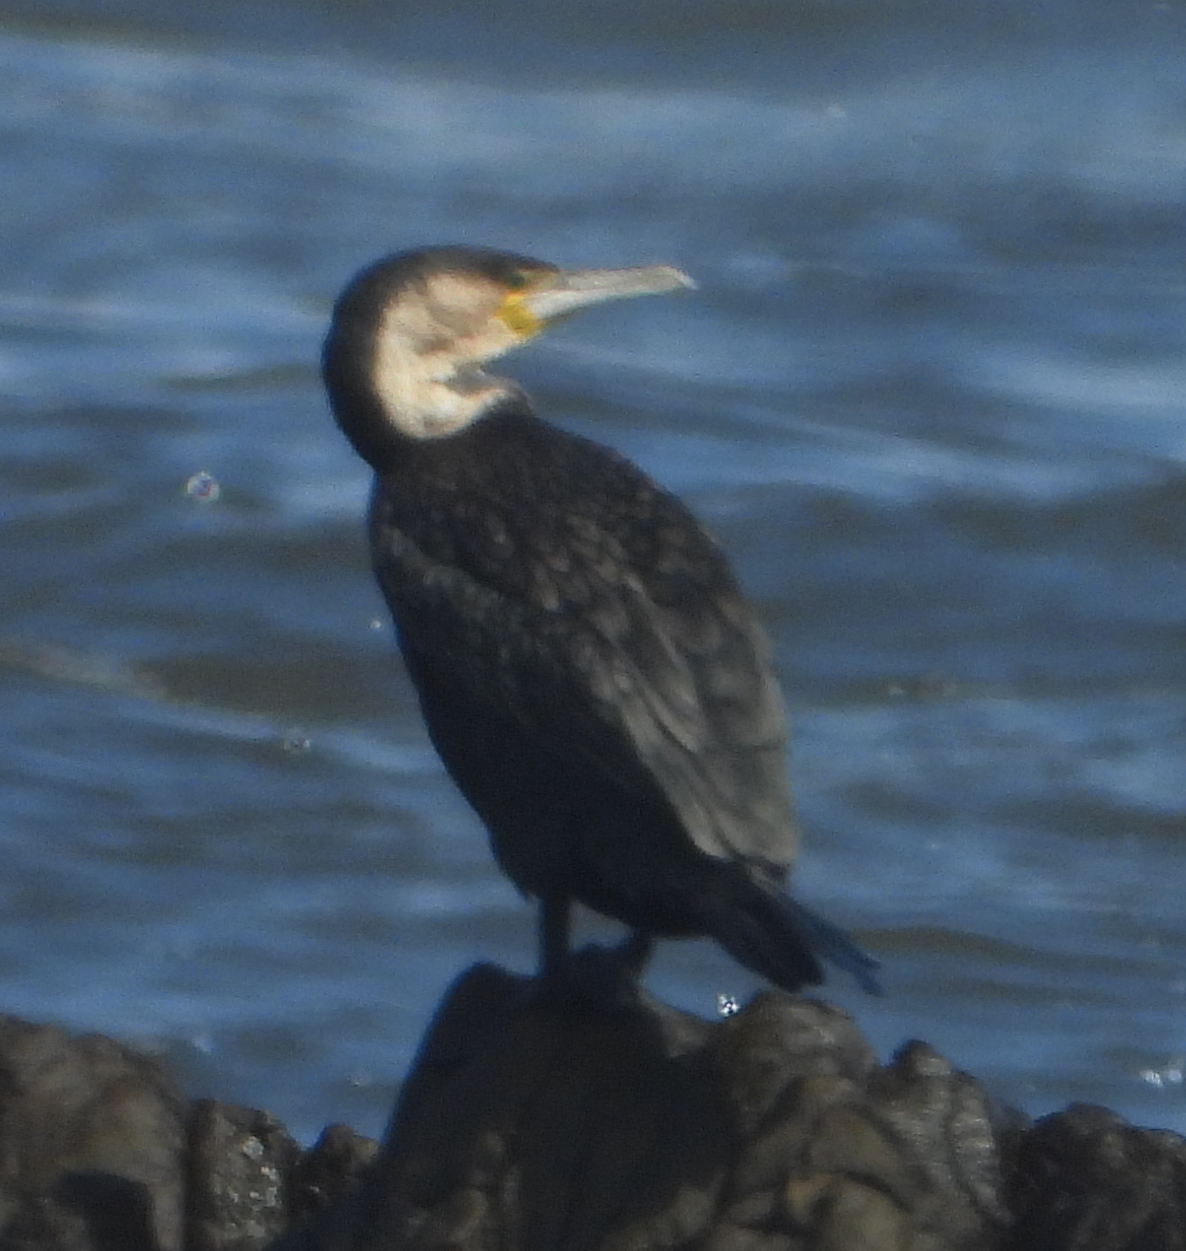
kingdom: Animalia
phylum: Chordata
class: Aves
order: Suliformes
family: Phalacrocoracidae
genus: Phalacrocorax
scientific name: Phalacrocorax carbo
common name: Great cormorant
